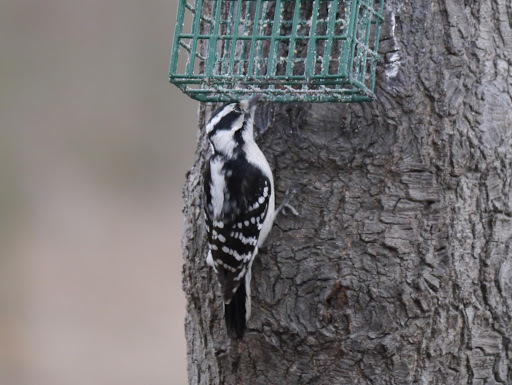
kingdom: Animalia
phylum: Chordata
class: Aves
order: Piciformes
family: Picidae
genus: Dryobates
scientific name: Dryobates pubescens
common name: Downy woodpecker
